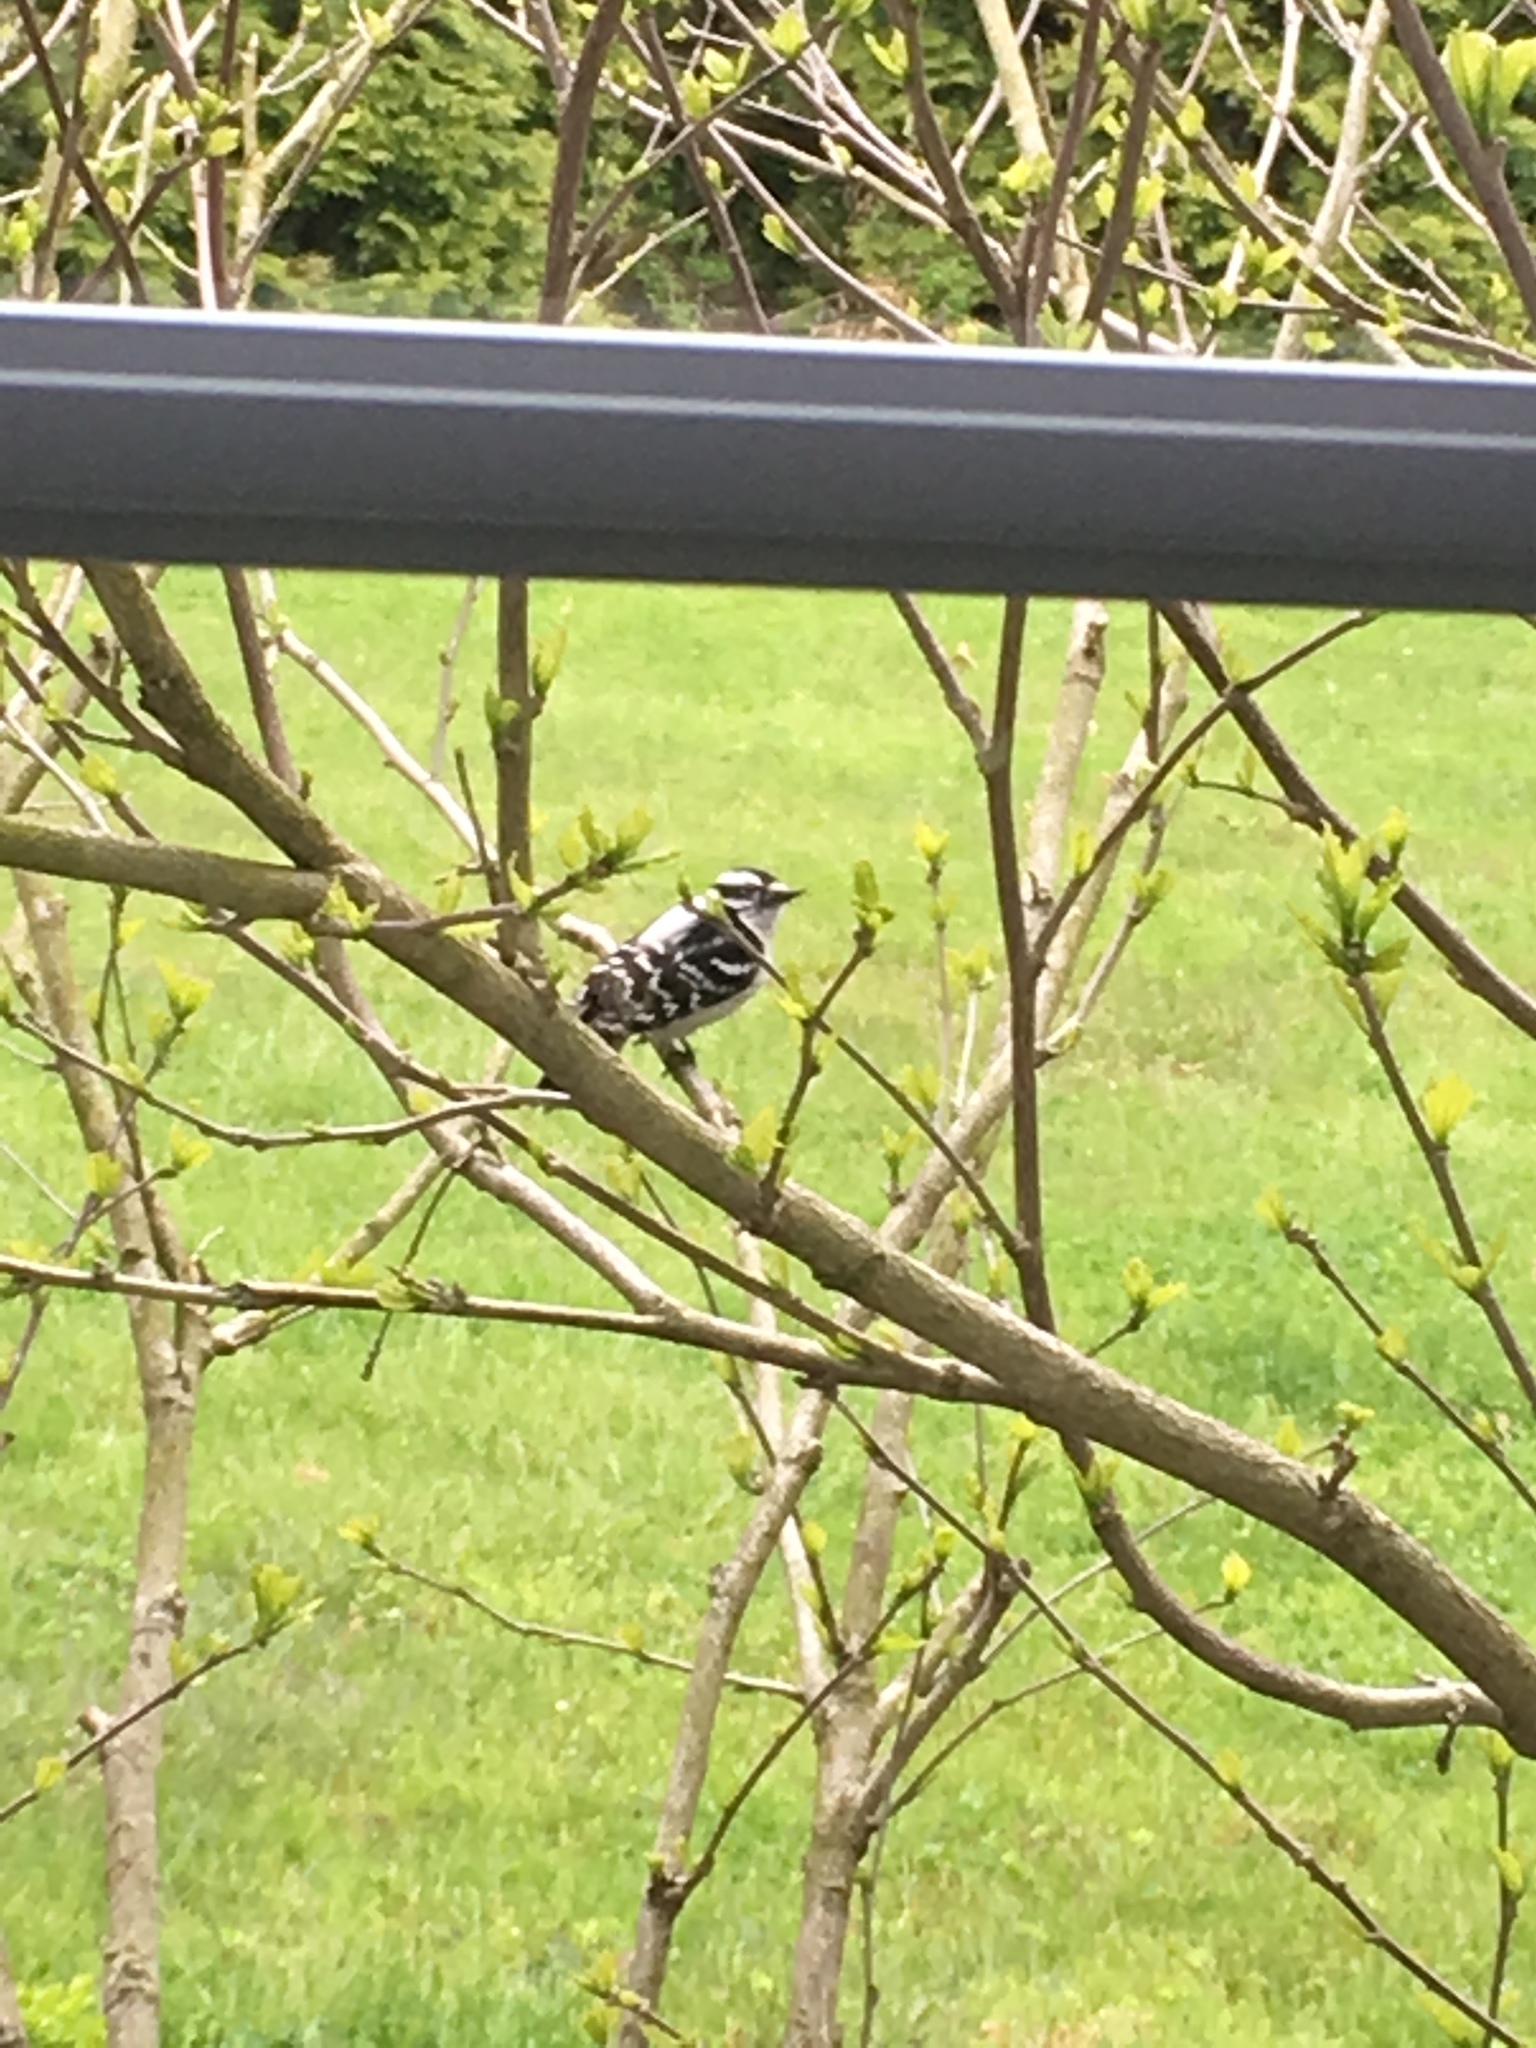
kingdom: Animalia
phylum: Chordata
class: Aves
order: Piciformes
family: Picidae
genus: Dryobates
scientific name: Dryobates pubescens
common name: Downy woodpecker
